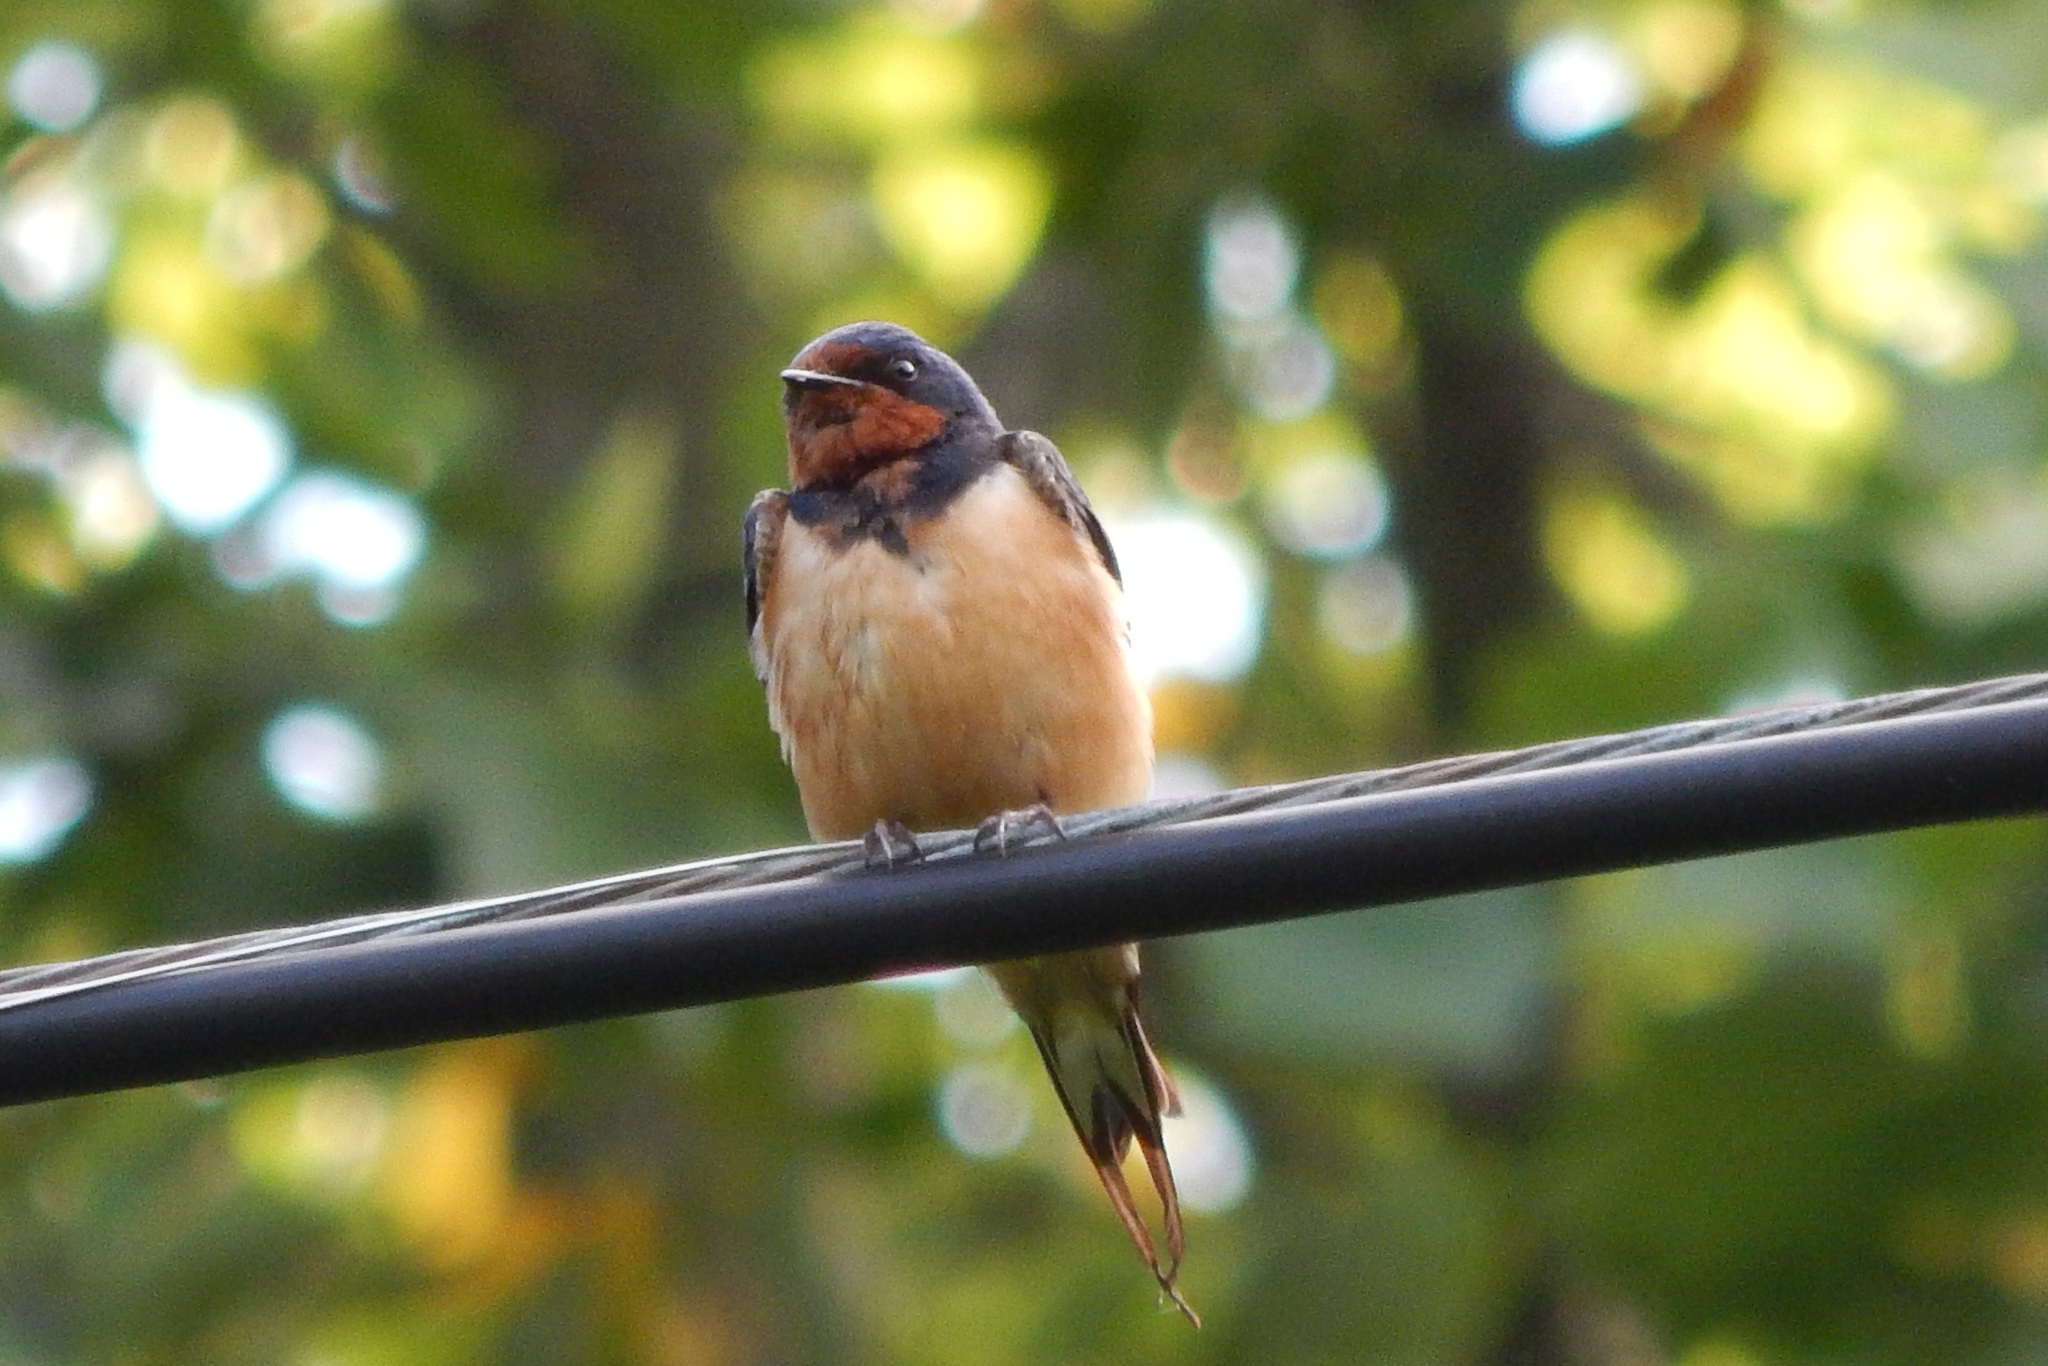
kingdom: Animalia
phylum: Chordata
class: Aves
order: Passeriformes
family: Hirundinidae
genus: Hirundo
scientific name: Hirundo rustica
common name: Barn swallow
